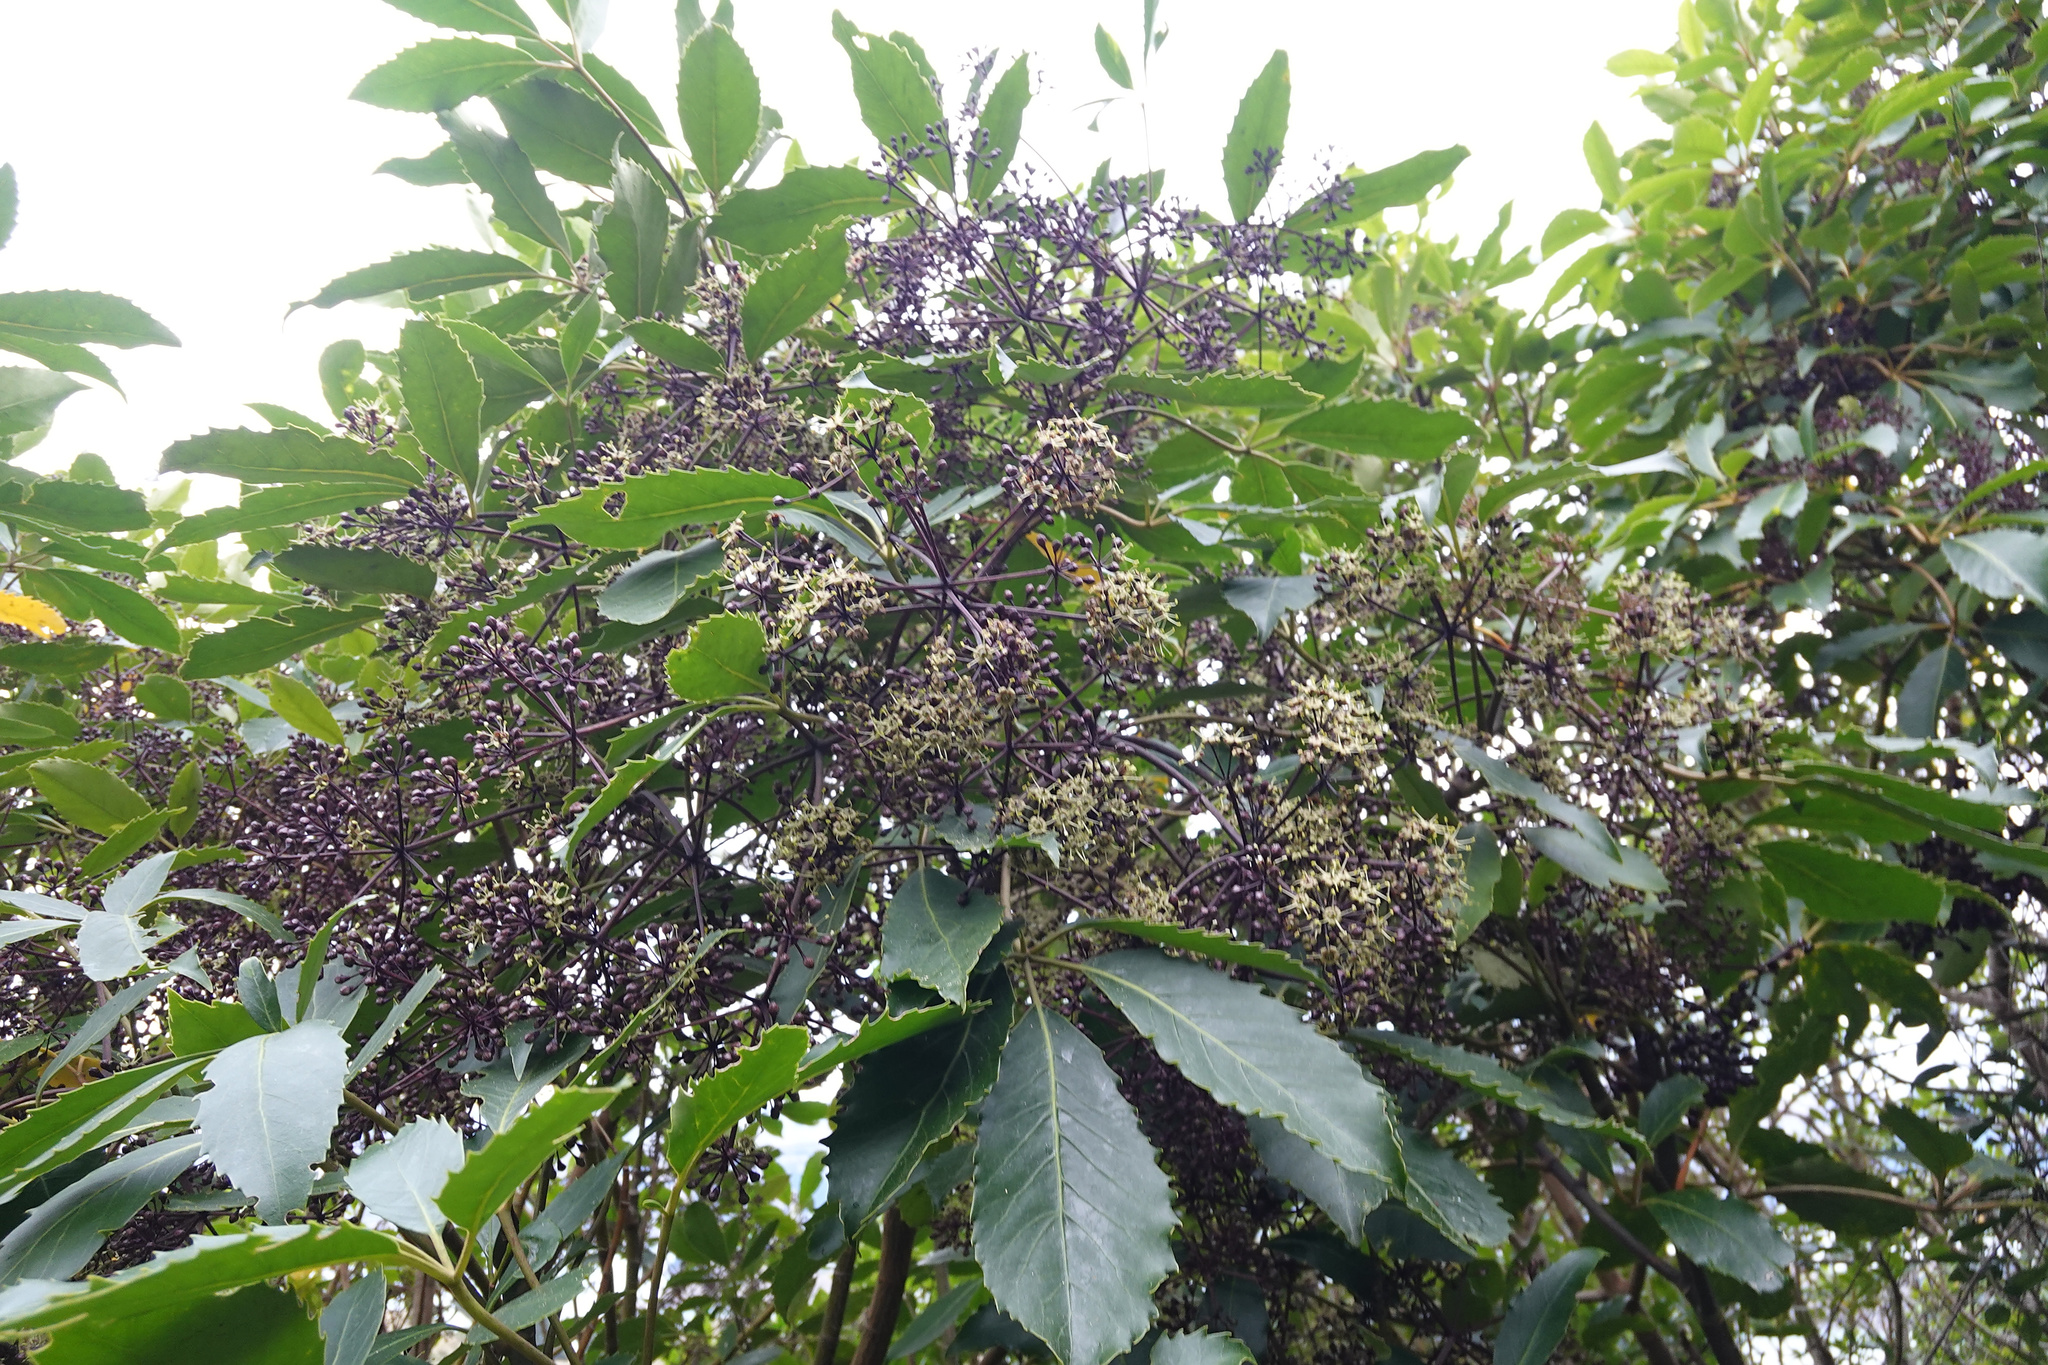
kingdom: Plantae
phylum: Tracheophyta
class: Magnoliopsida
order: Apiales
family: Araliaceae
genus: Neopanax
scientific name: Neopanax arboreus
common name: Five-fingers
